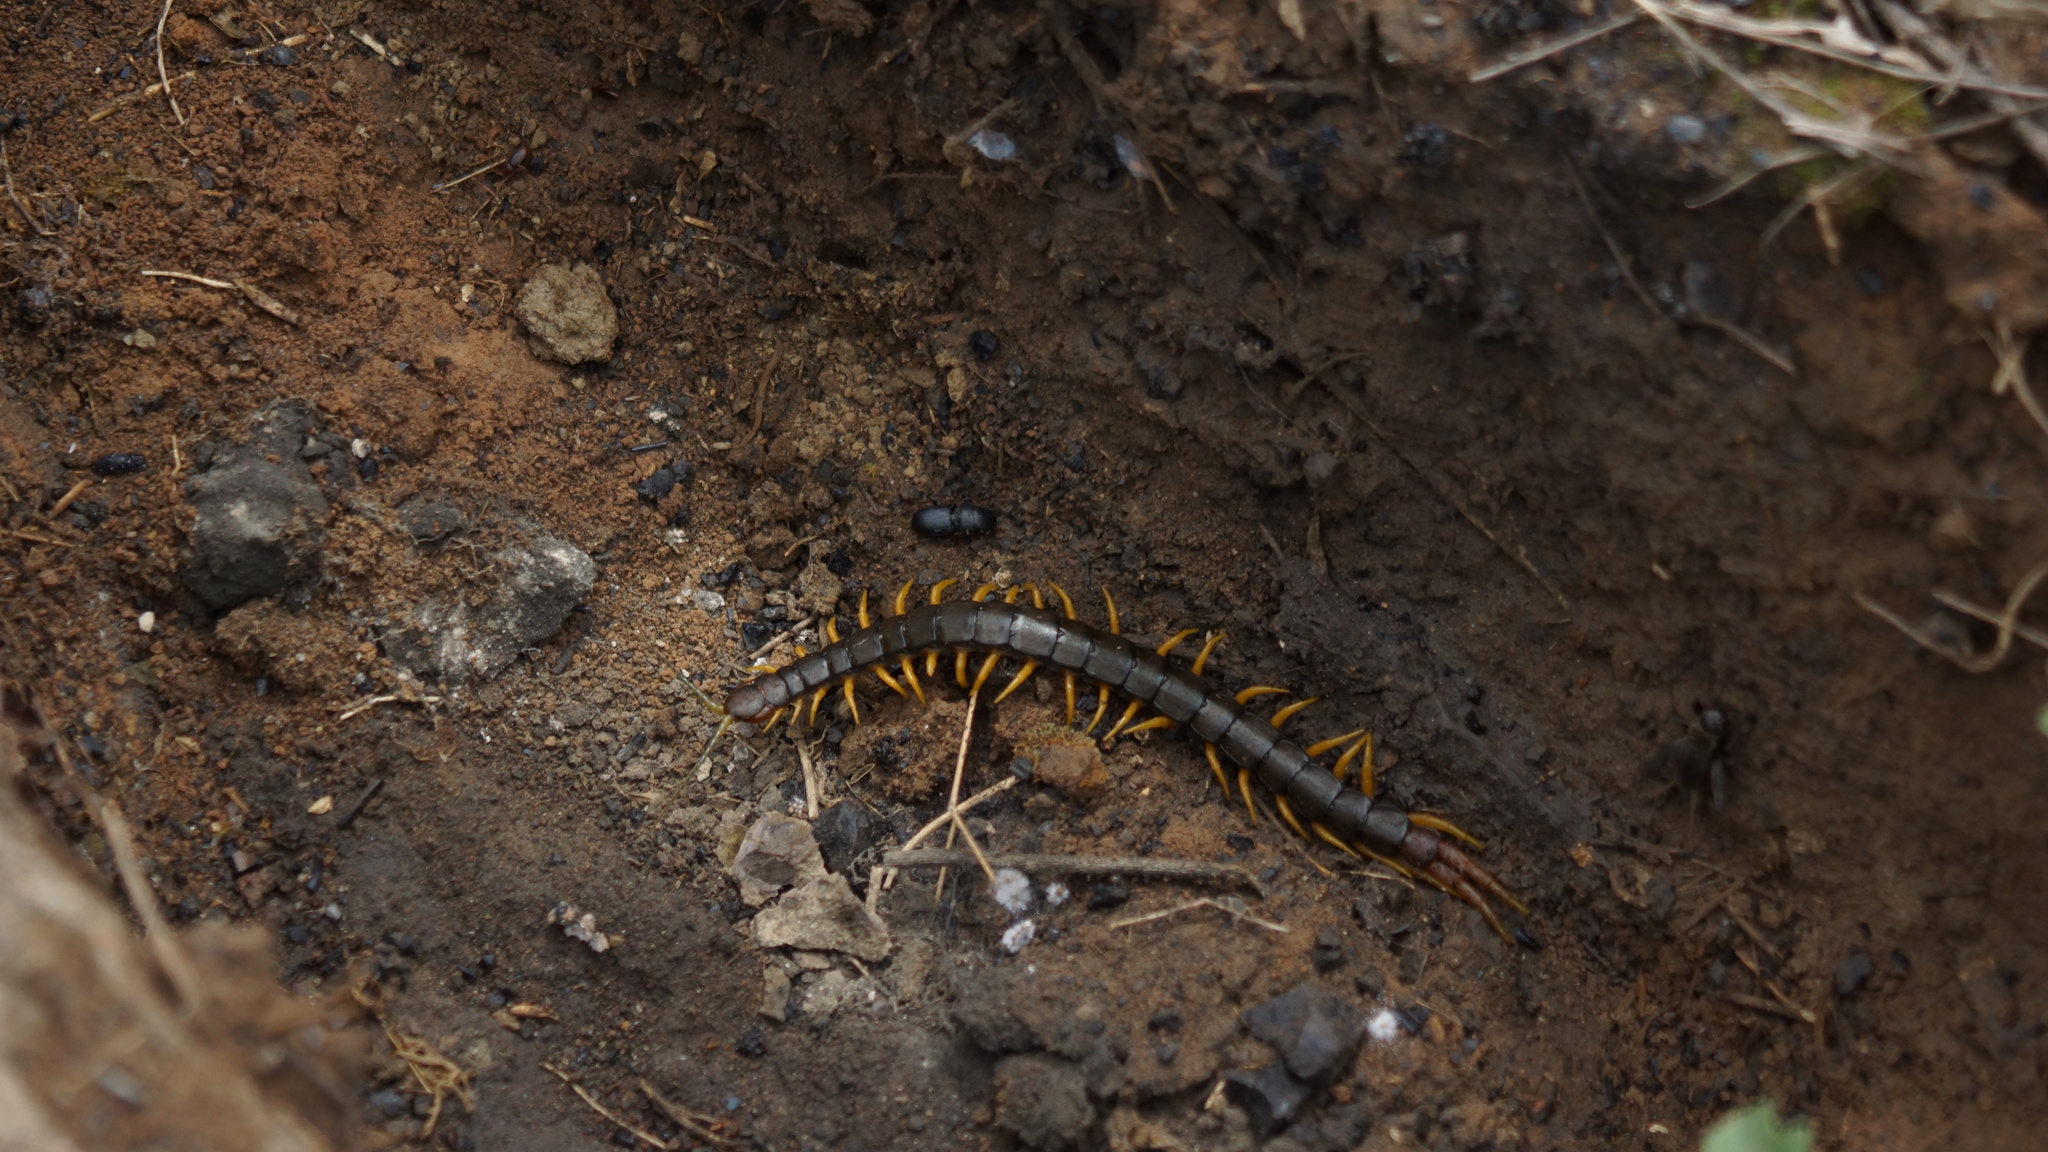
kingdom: Animalia
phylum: Arthropoda
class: Chilopoda
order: Scolopendromorpha
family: Scolopendridae
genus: Scolopendra
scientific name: Scolopendra cingulata
